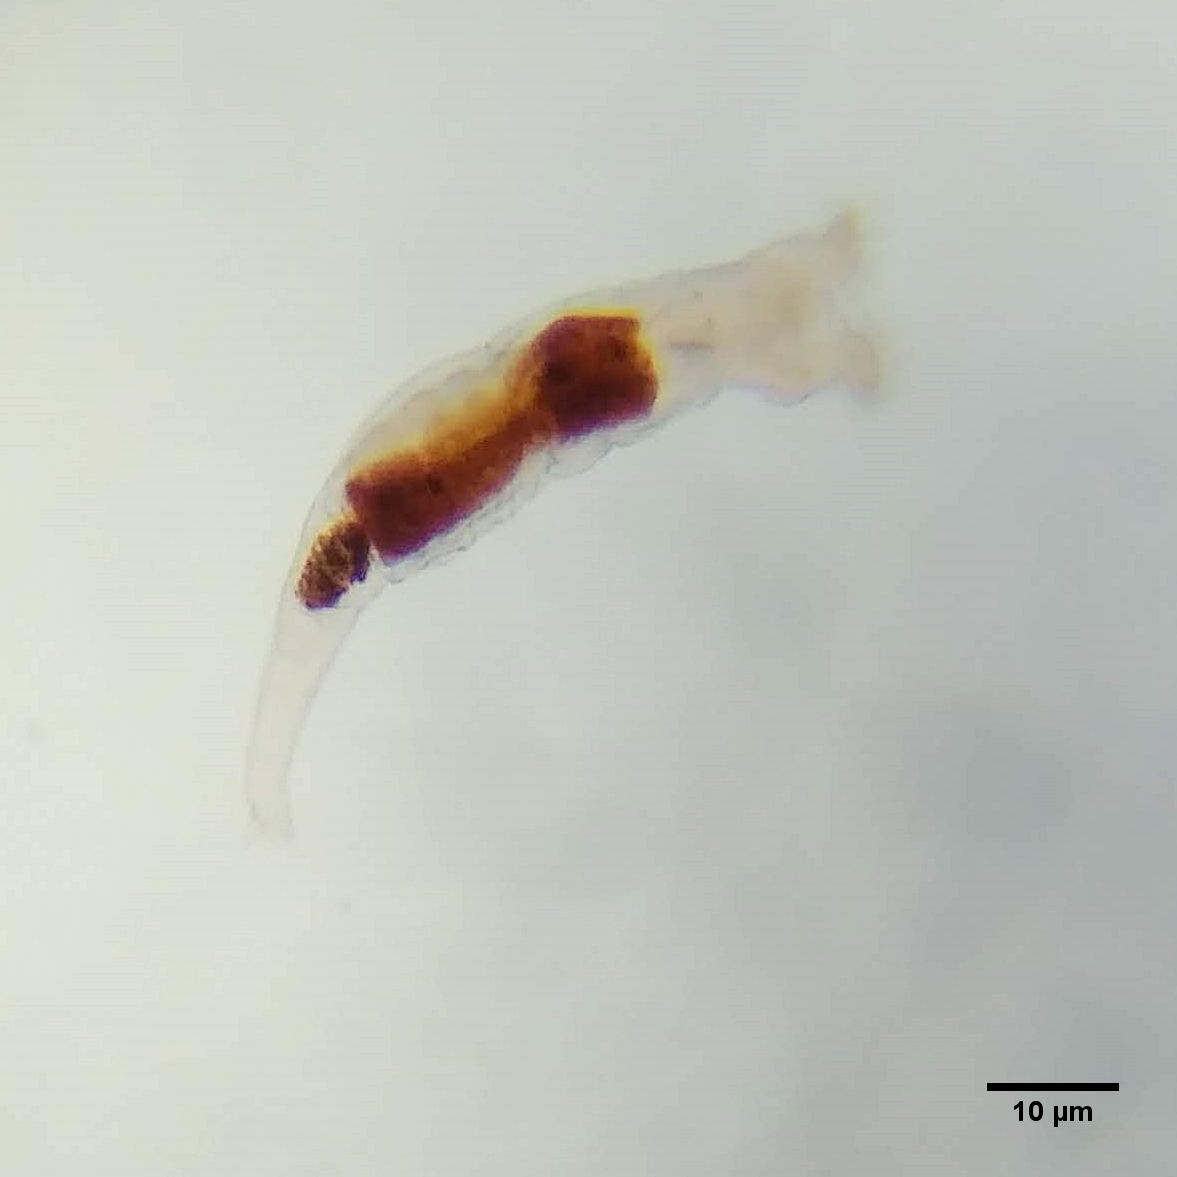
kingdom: Animalia
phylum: Rotifera
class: Eurotatoria
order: Bdelloidea
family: Philodinidae
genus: Philodina
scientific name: Philodina roseola
